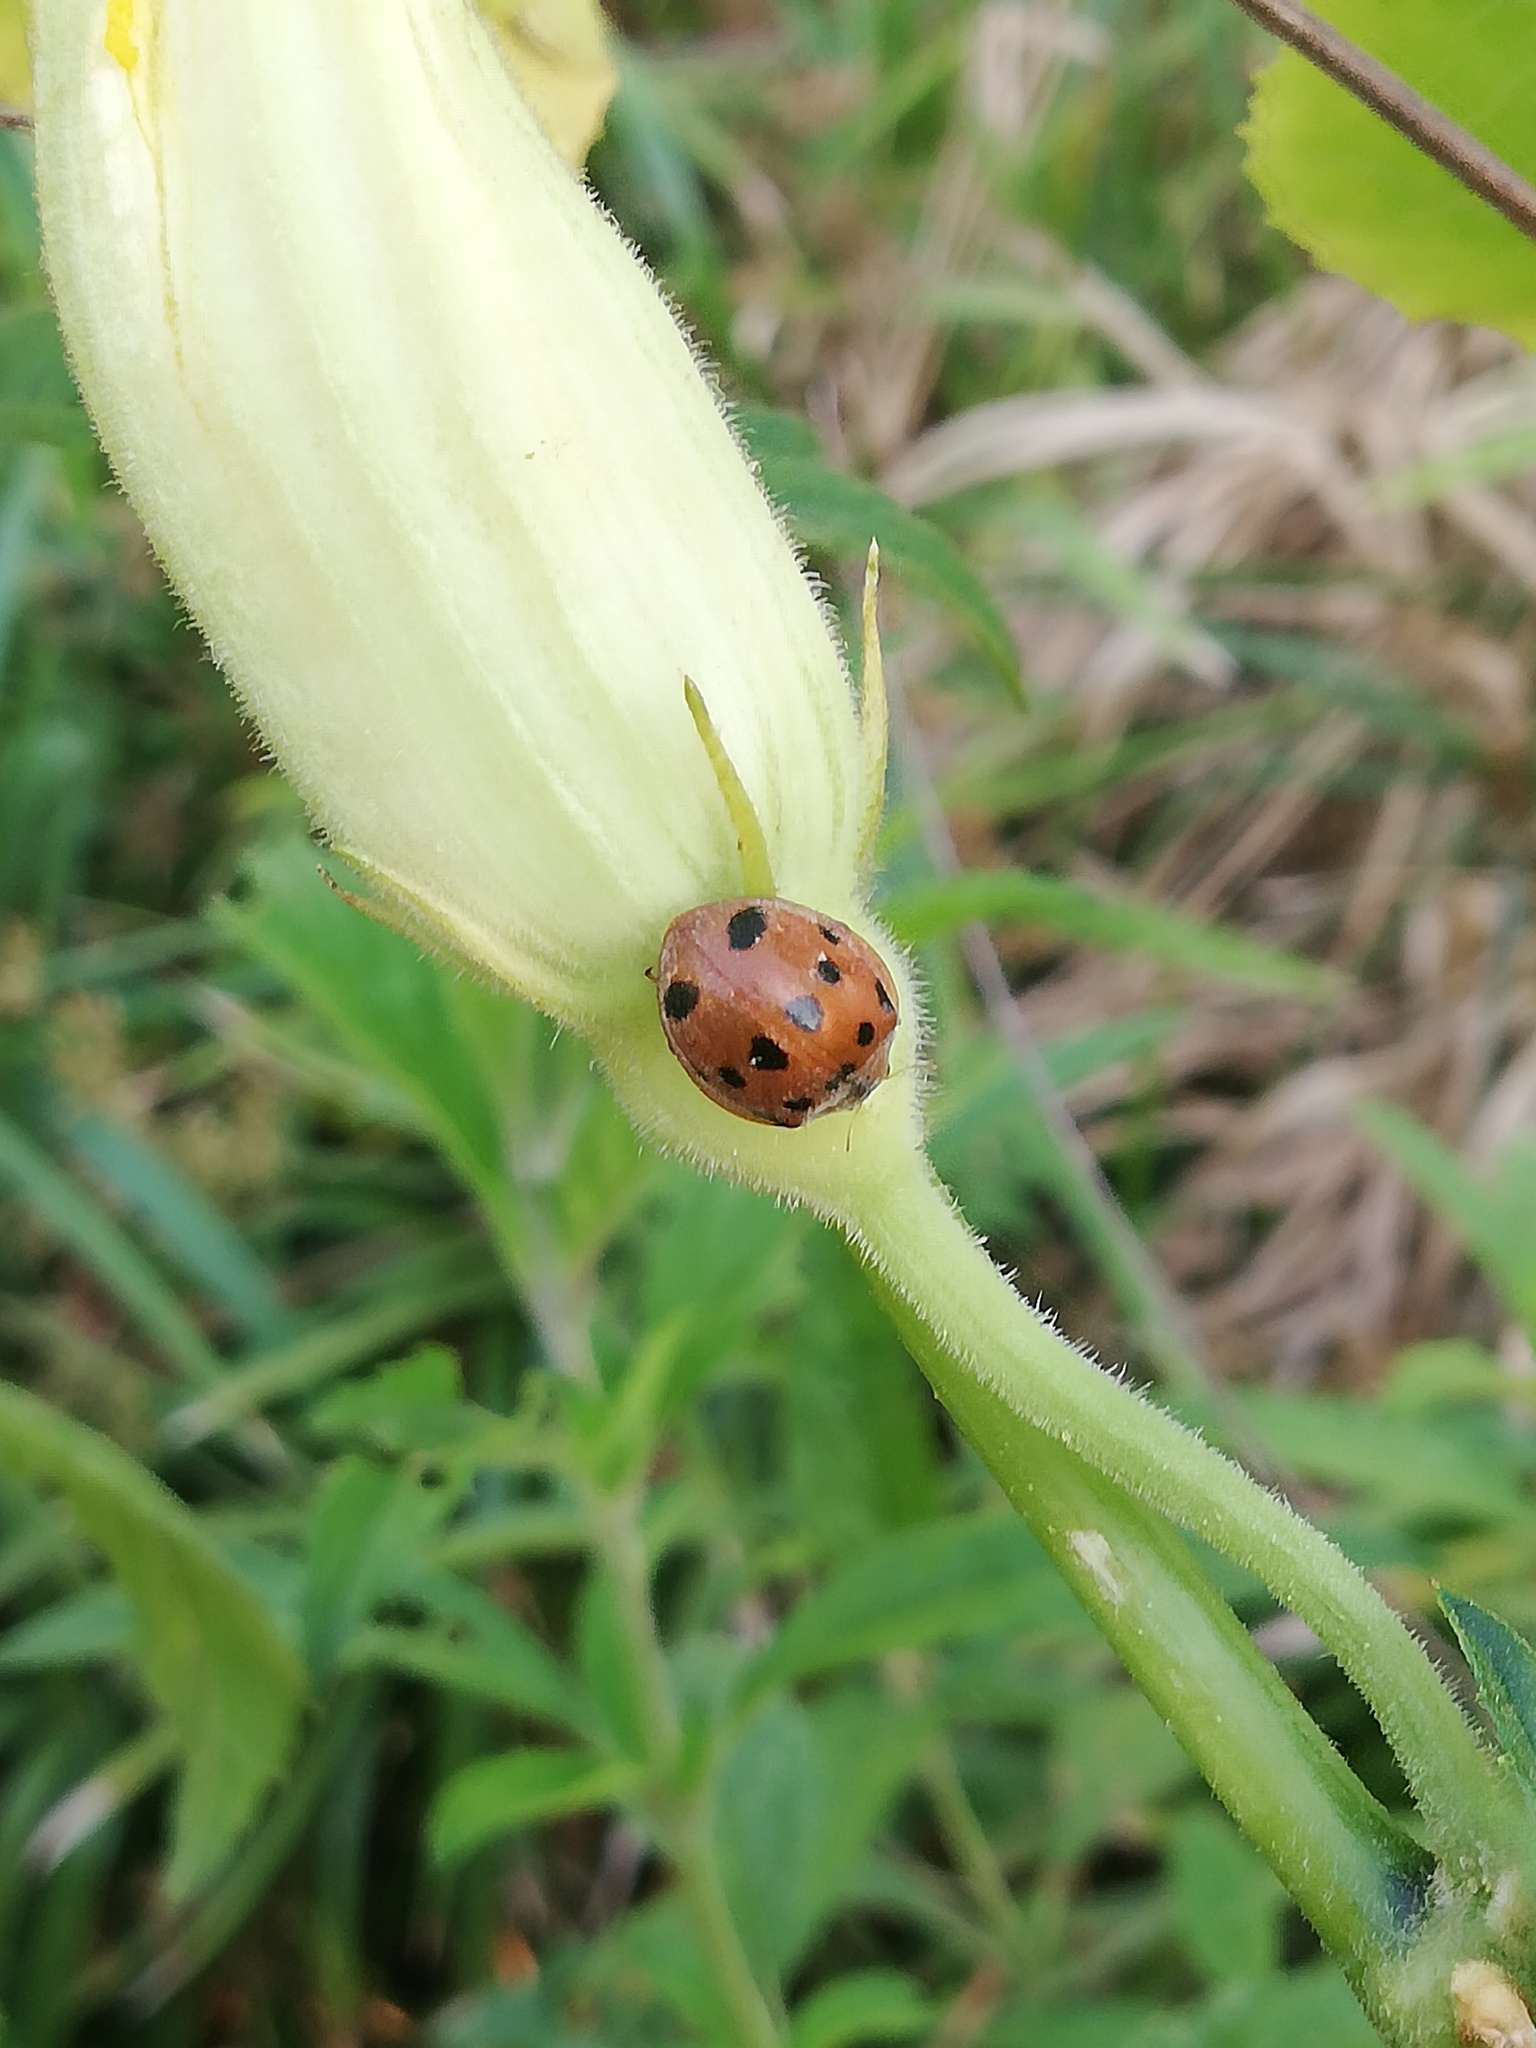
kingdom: Animalia
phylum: Arthropoda
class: Insecta
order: Coleoptera
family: Coccinellidae
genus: Epilachna
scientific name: Epilachna tredecimnotata
